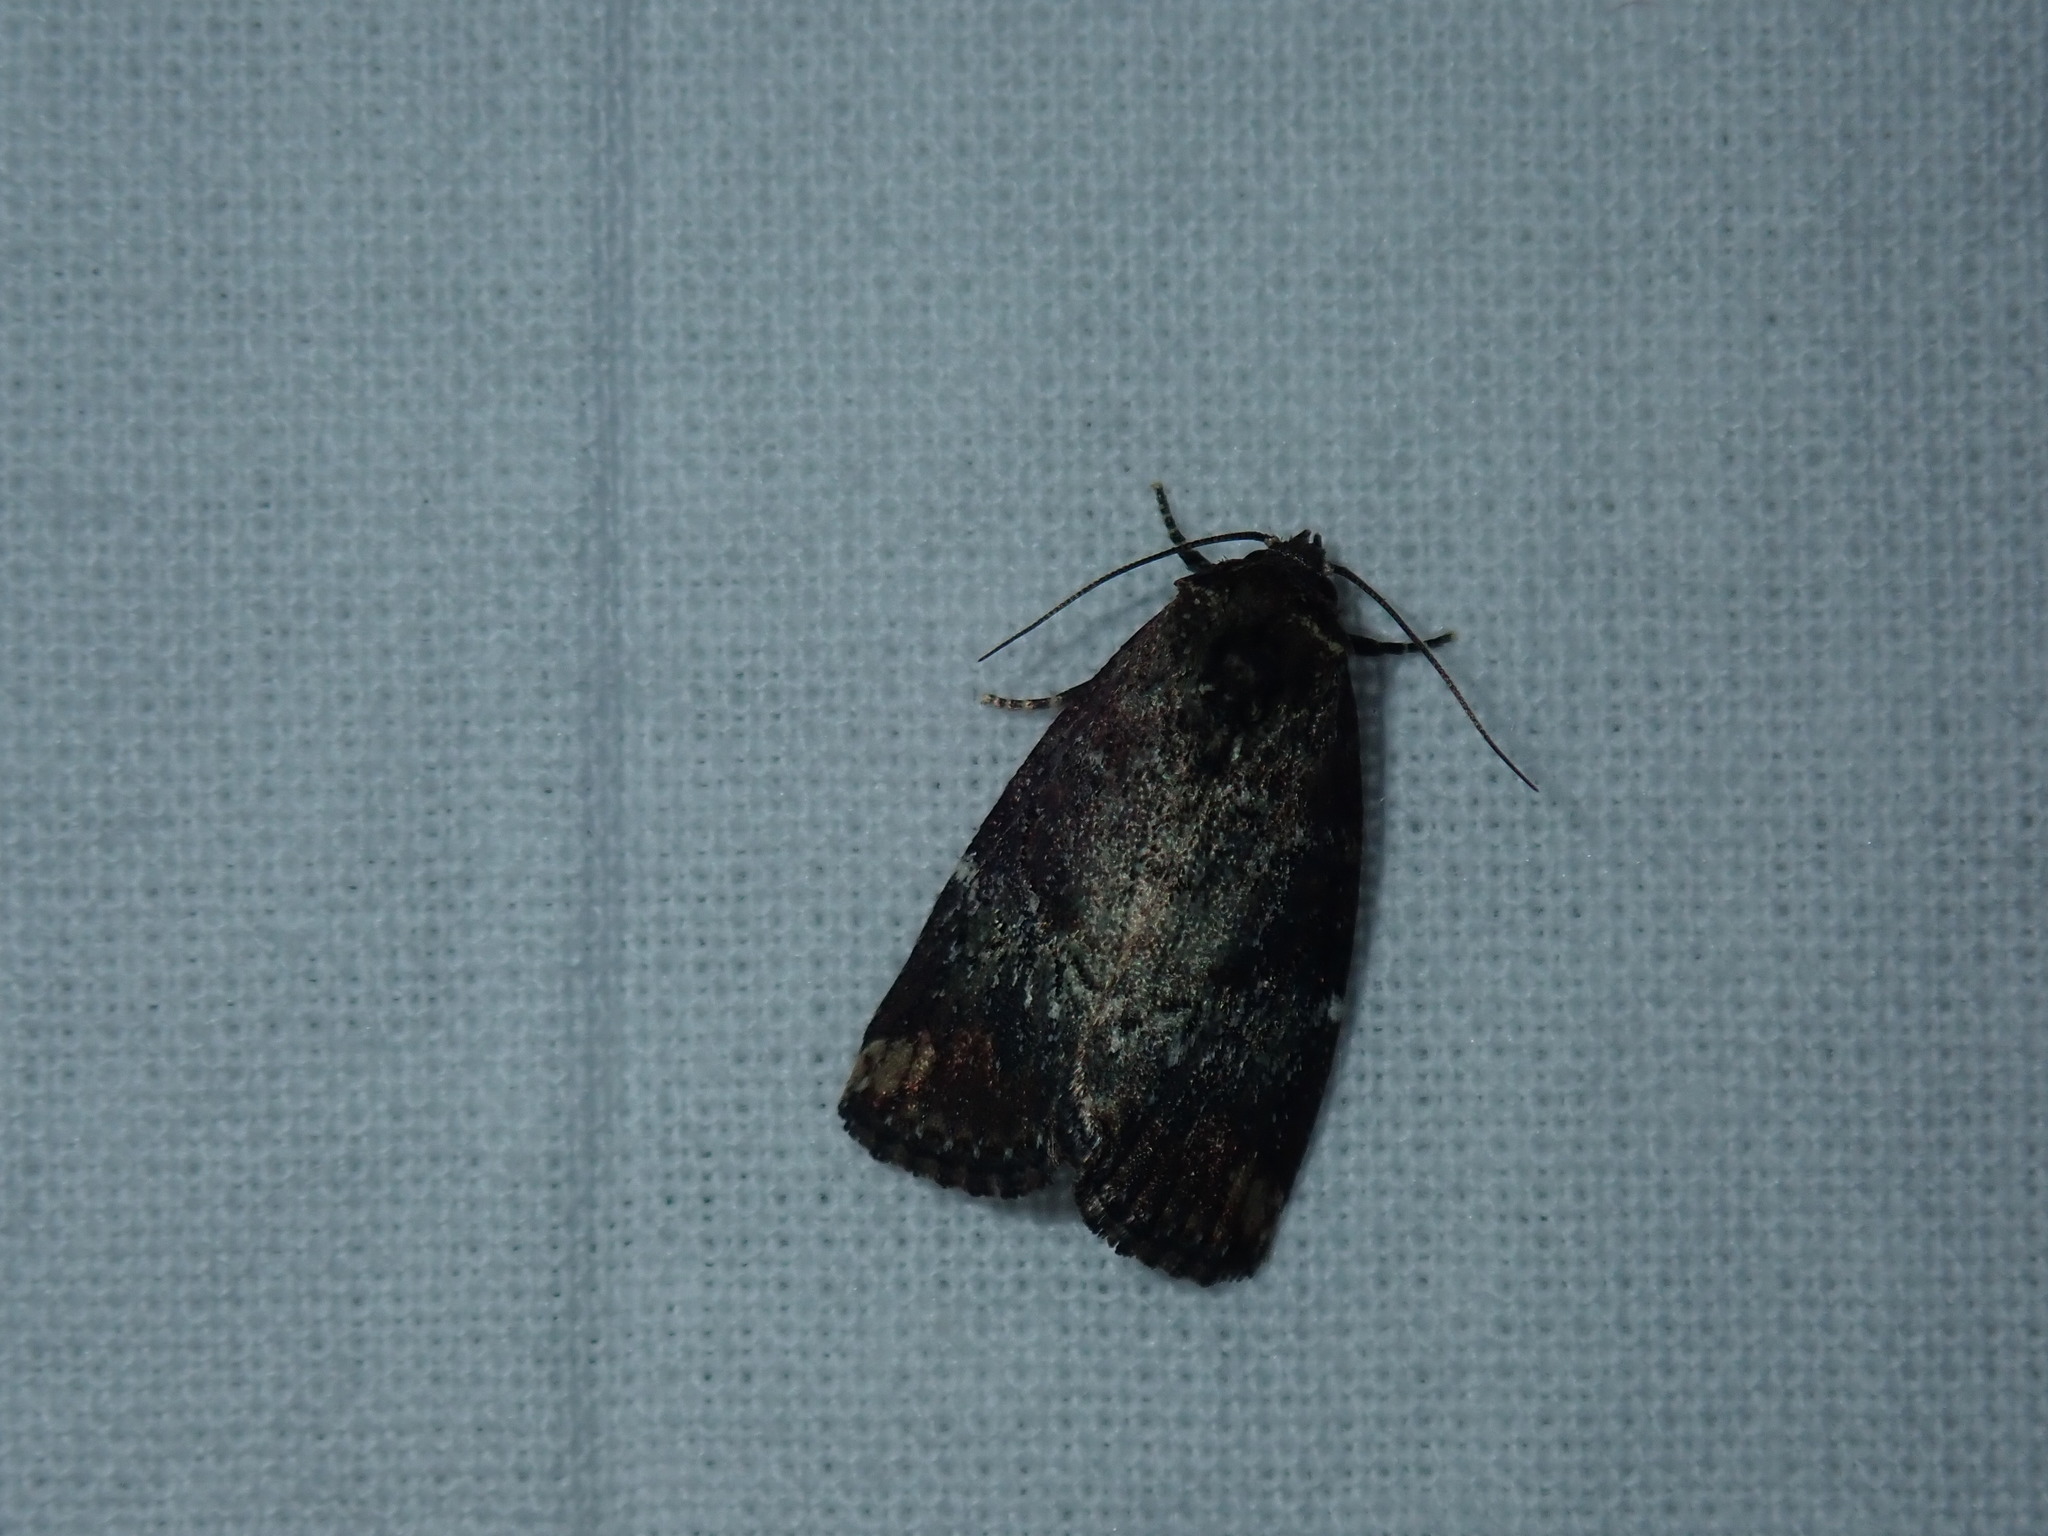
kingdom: Animalia
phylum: Arthropoda
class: Insecta
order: Lepidoptera
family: Noctuidae
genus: Elaphria
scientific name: Elaphria versicolor
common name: Fir harlequin
